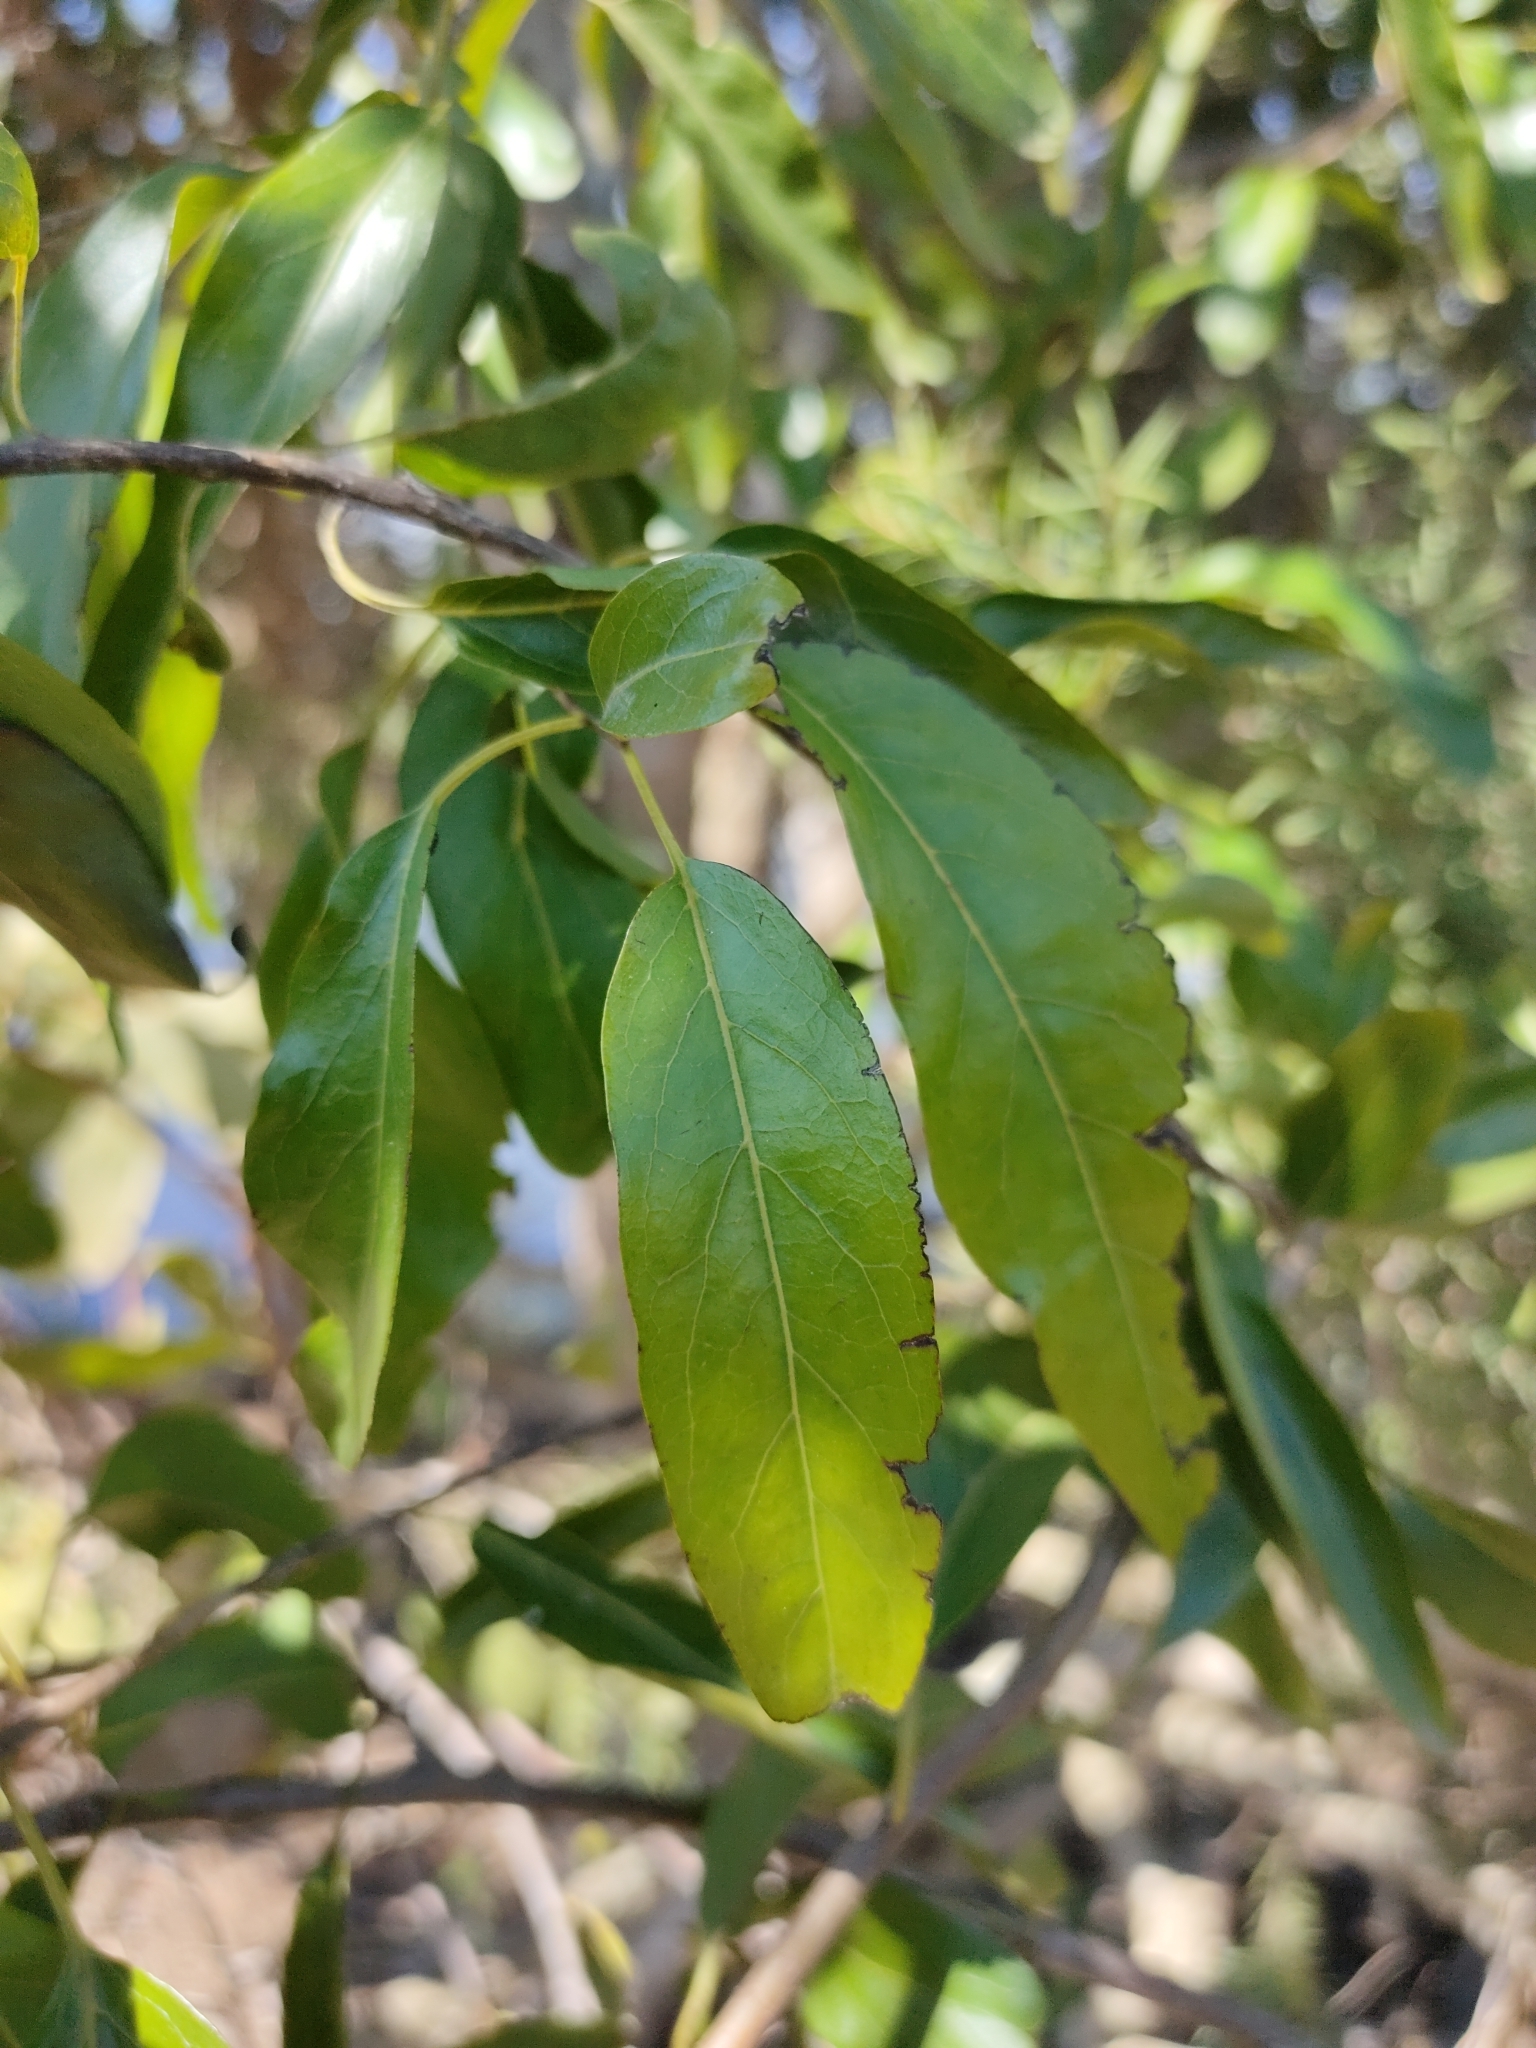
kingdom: Plantae
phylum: Tracheophyta
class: Magnoliopsida
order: Boraginales
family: Ehretiaceae
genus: Ehretia
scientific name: Ehretia saligna
